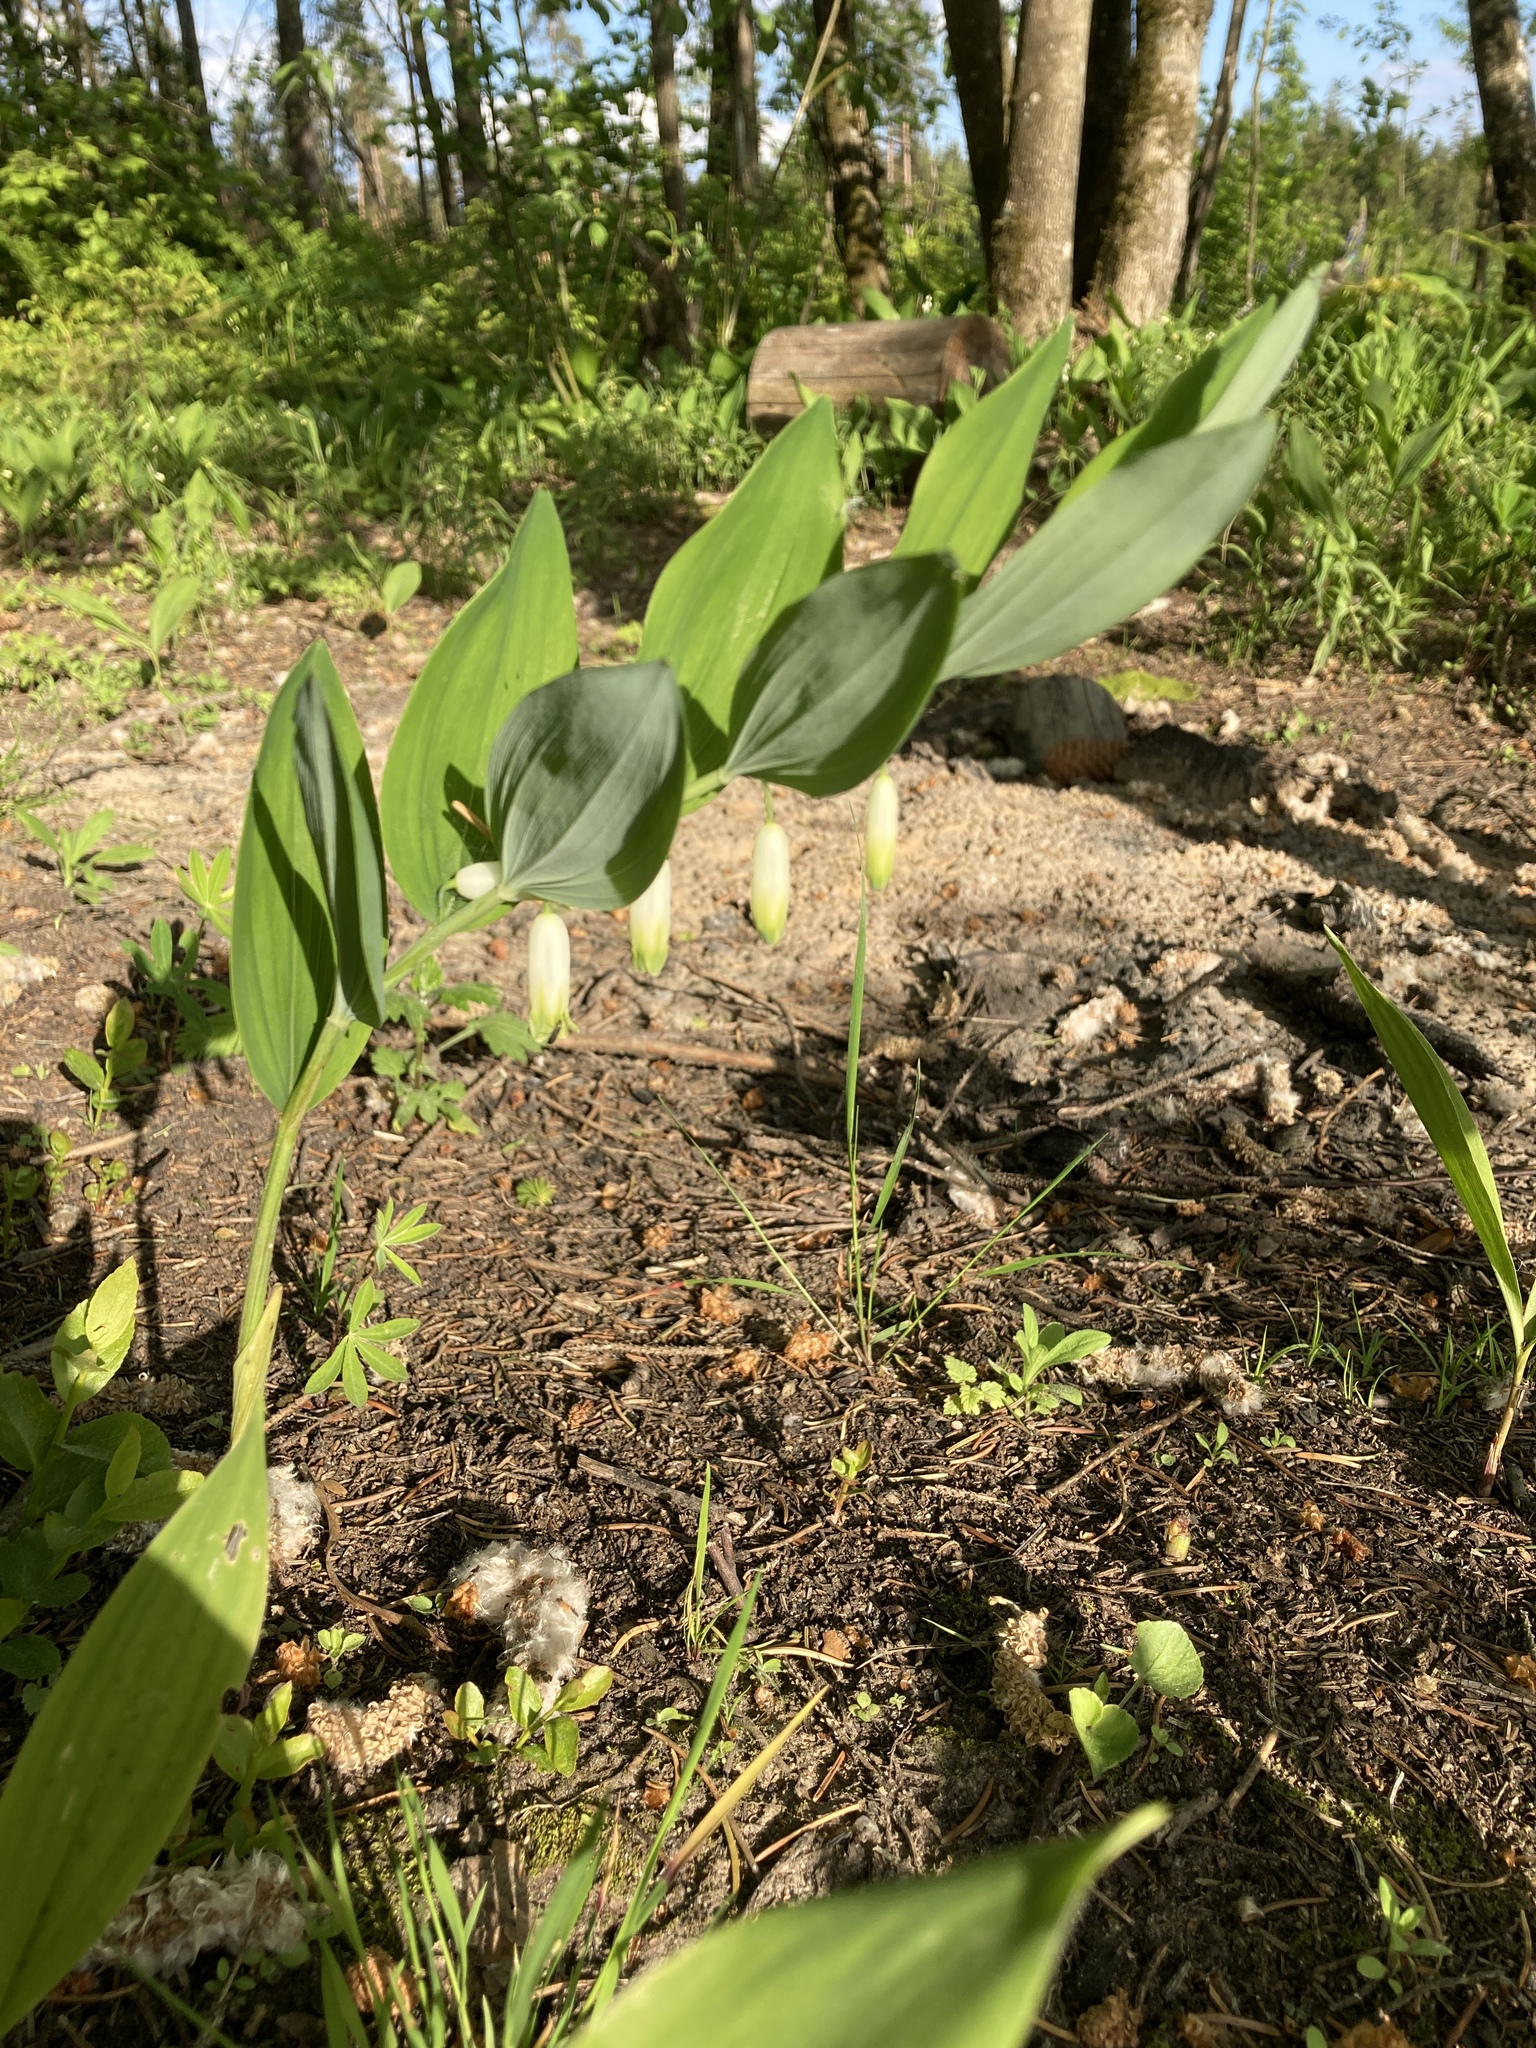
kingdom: Plantae
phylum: Tracheophyta
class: Liliopsida
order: Asparagales
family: Asparagaceae
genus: Polygonatum
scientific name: Polygonatum odoratum
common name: Angular solomon's-seal
